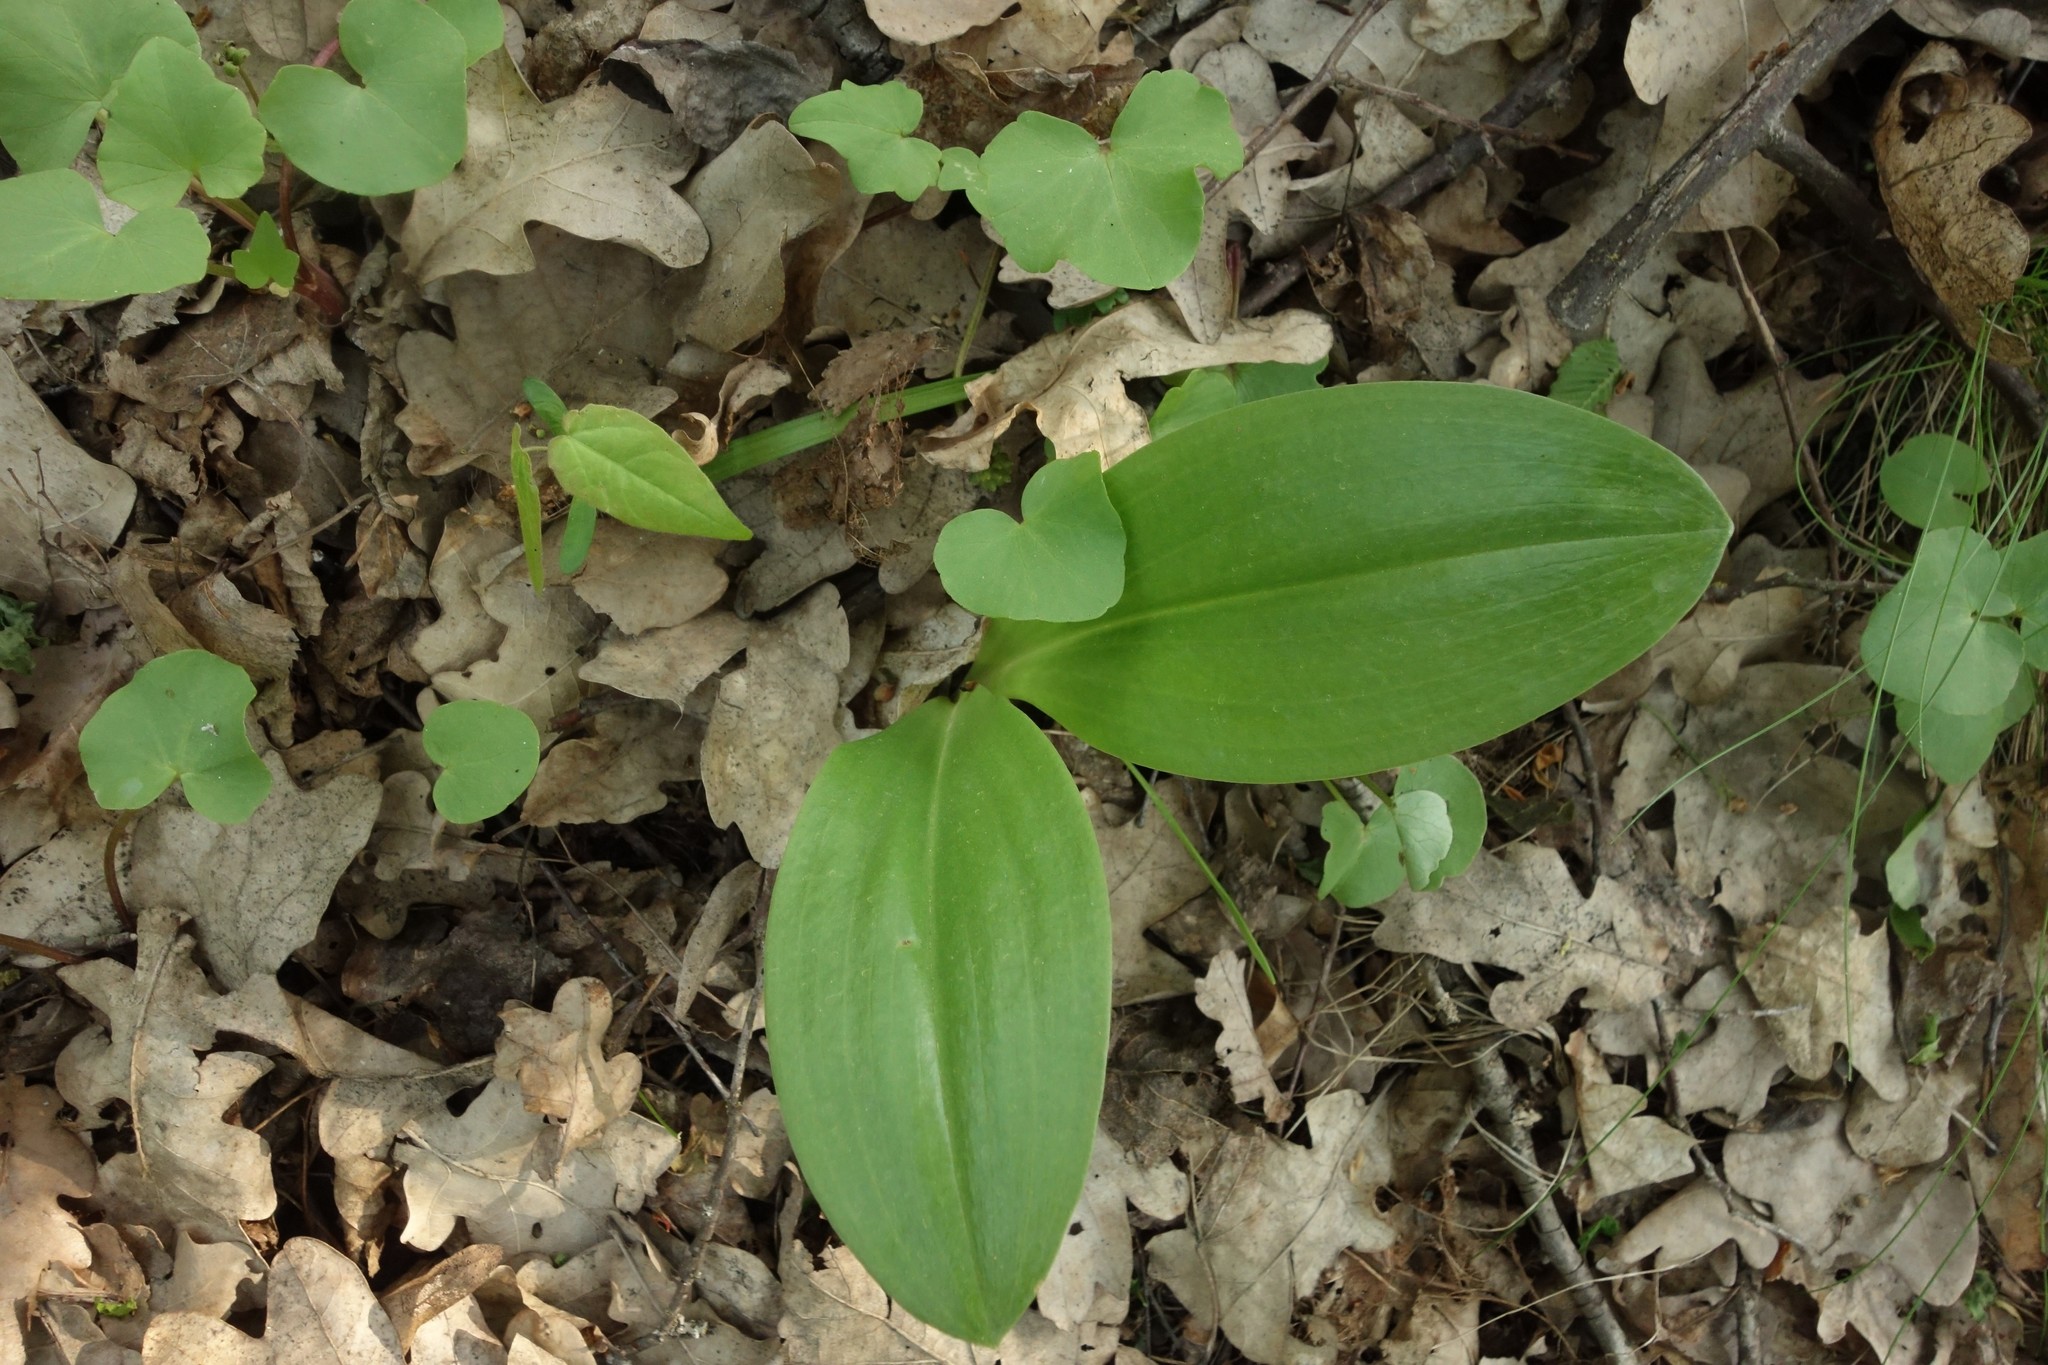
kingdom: Plantae
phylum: Tracheophyta
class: Liliopsida
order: Asparagales
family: Orchidaceae
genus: Platanthera
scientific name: Platanthera
